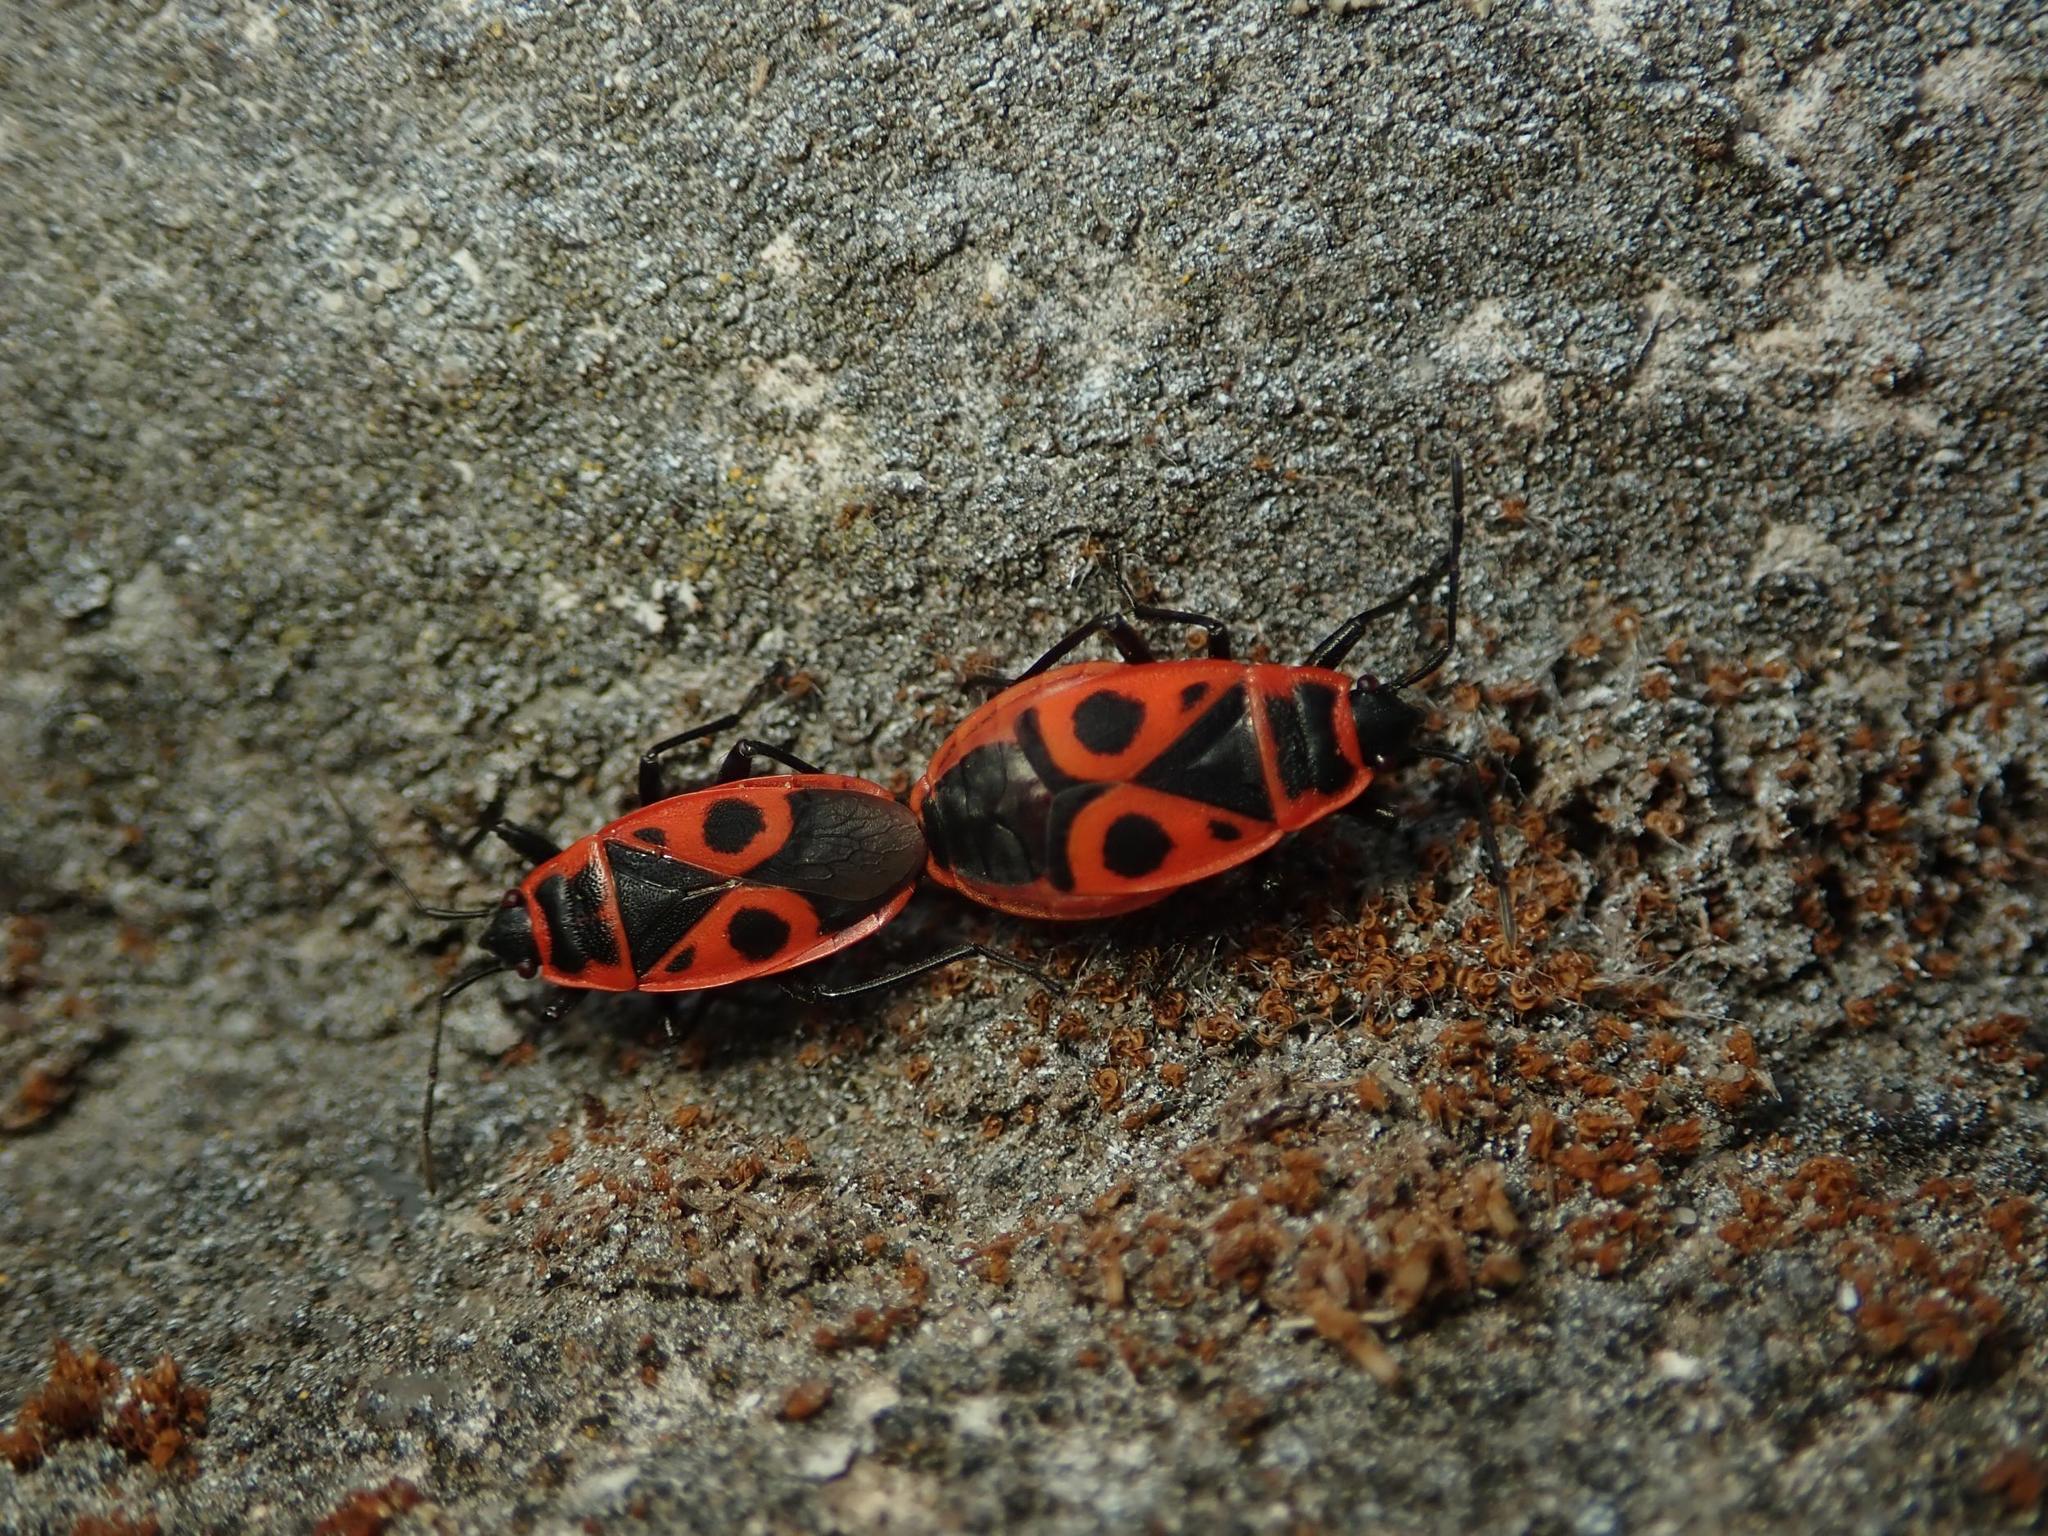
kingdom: Animalia
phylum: Arthropoda
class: Insecta
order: Hemiptera
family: Pyrrhocoridae
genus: Pyrrhocoris
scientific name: Pyrrhocoris apterus
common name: Firebug
